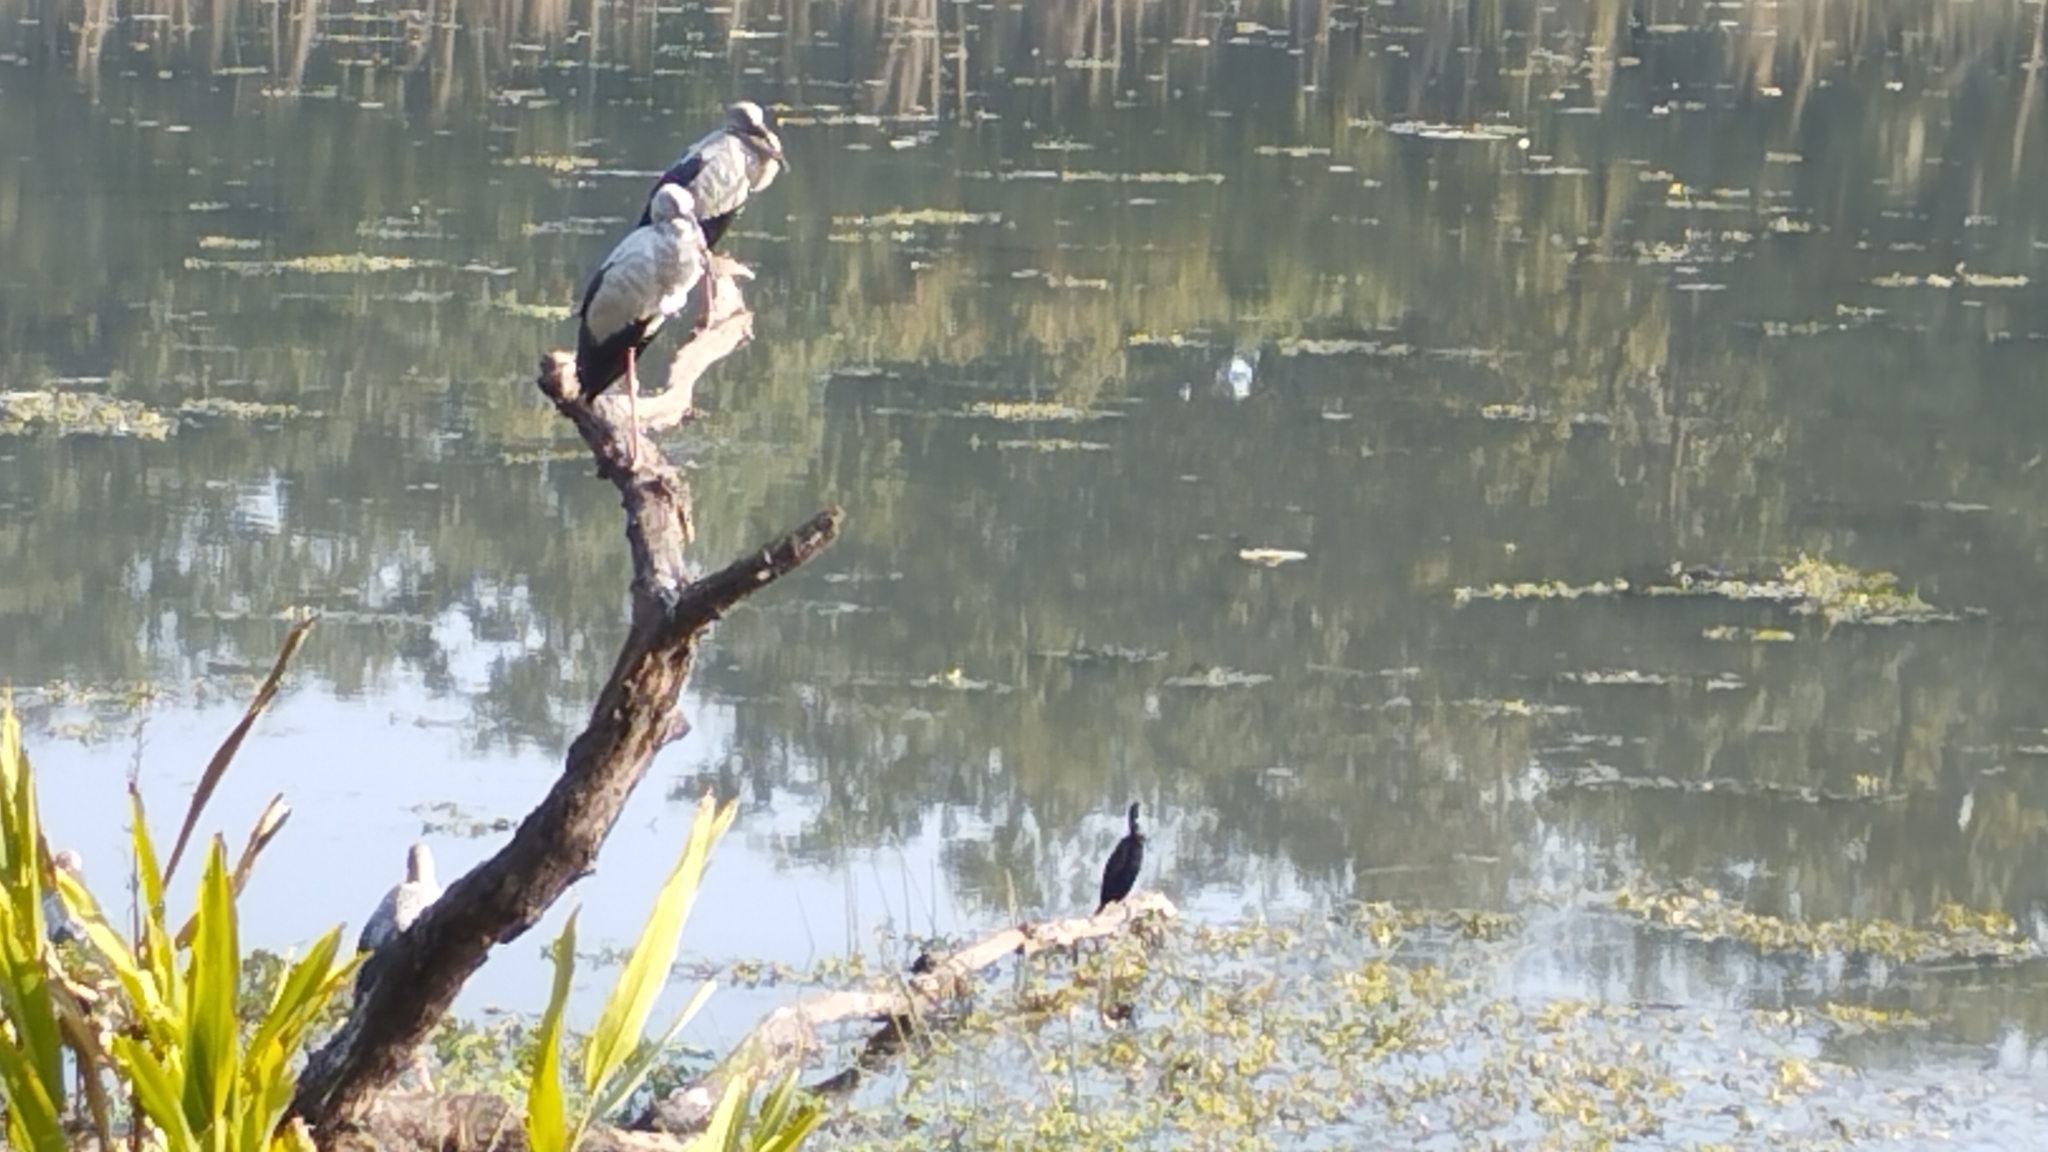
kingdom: Animalia
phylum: Chordata
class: Aves
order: Ciconiiformes
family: Ciconiidae
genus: Anastomus
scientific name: Anastomus oscitans
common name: Asian openbill
